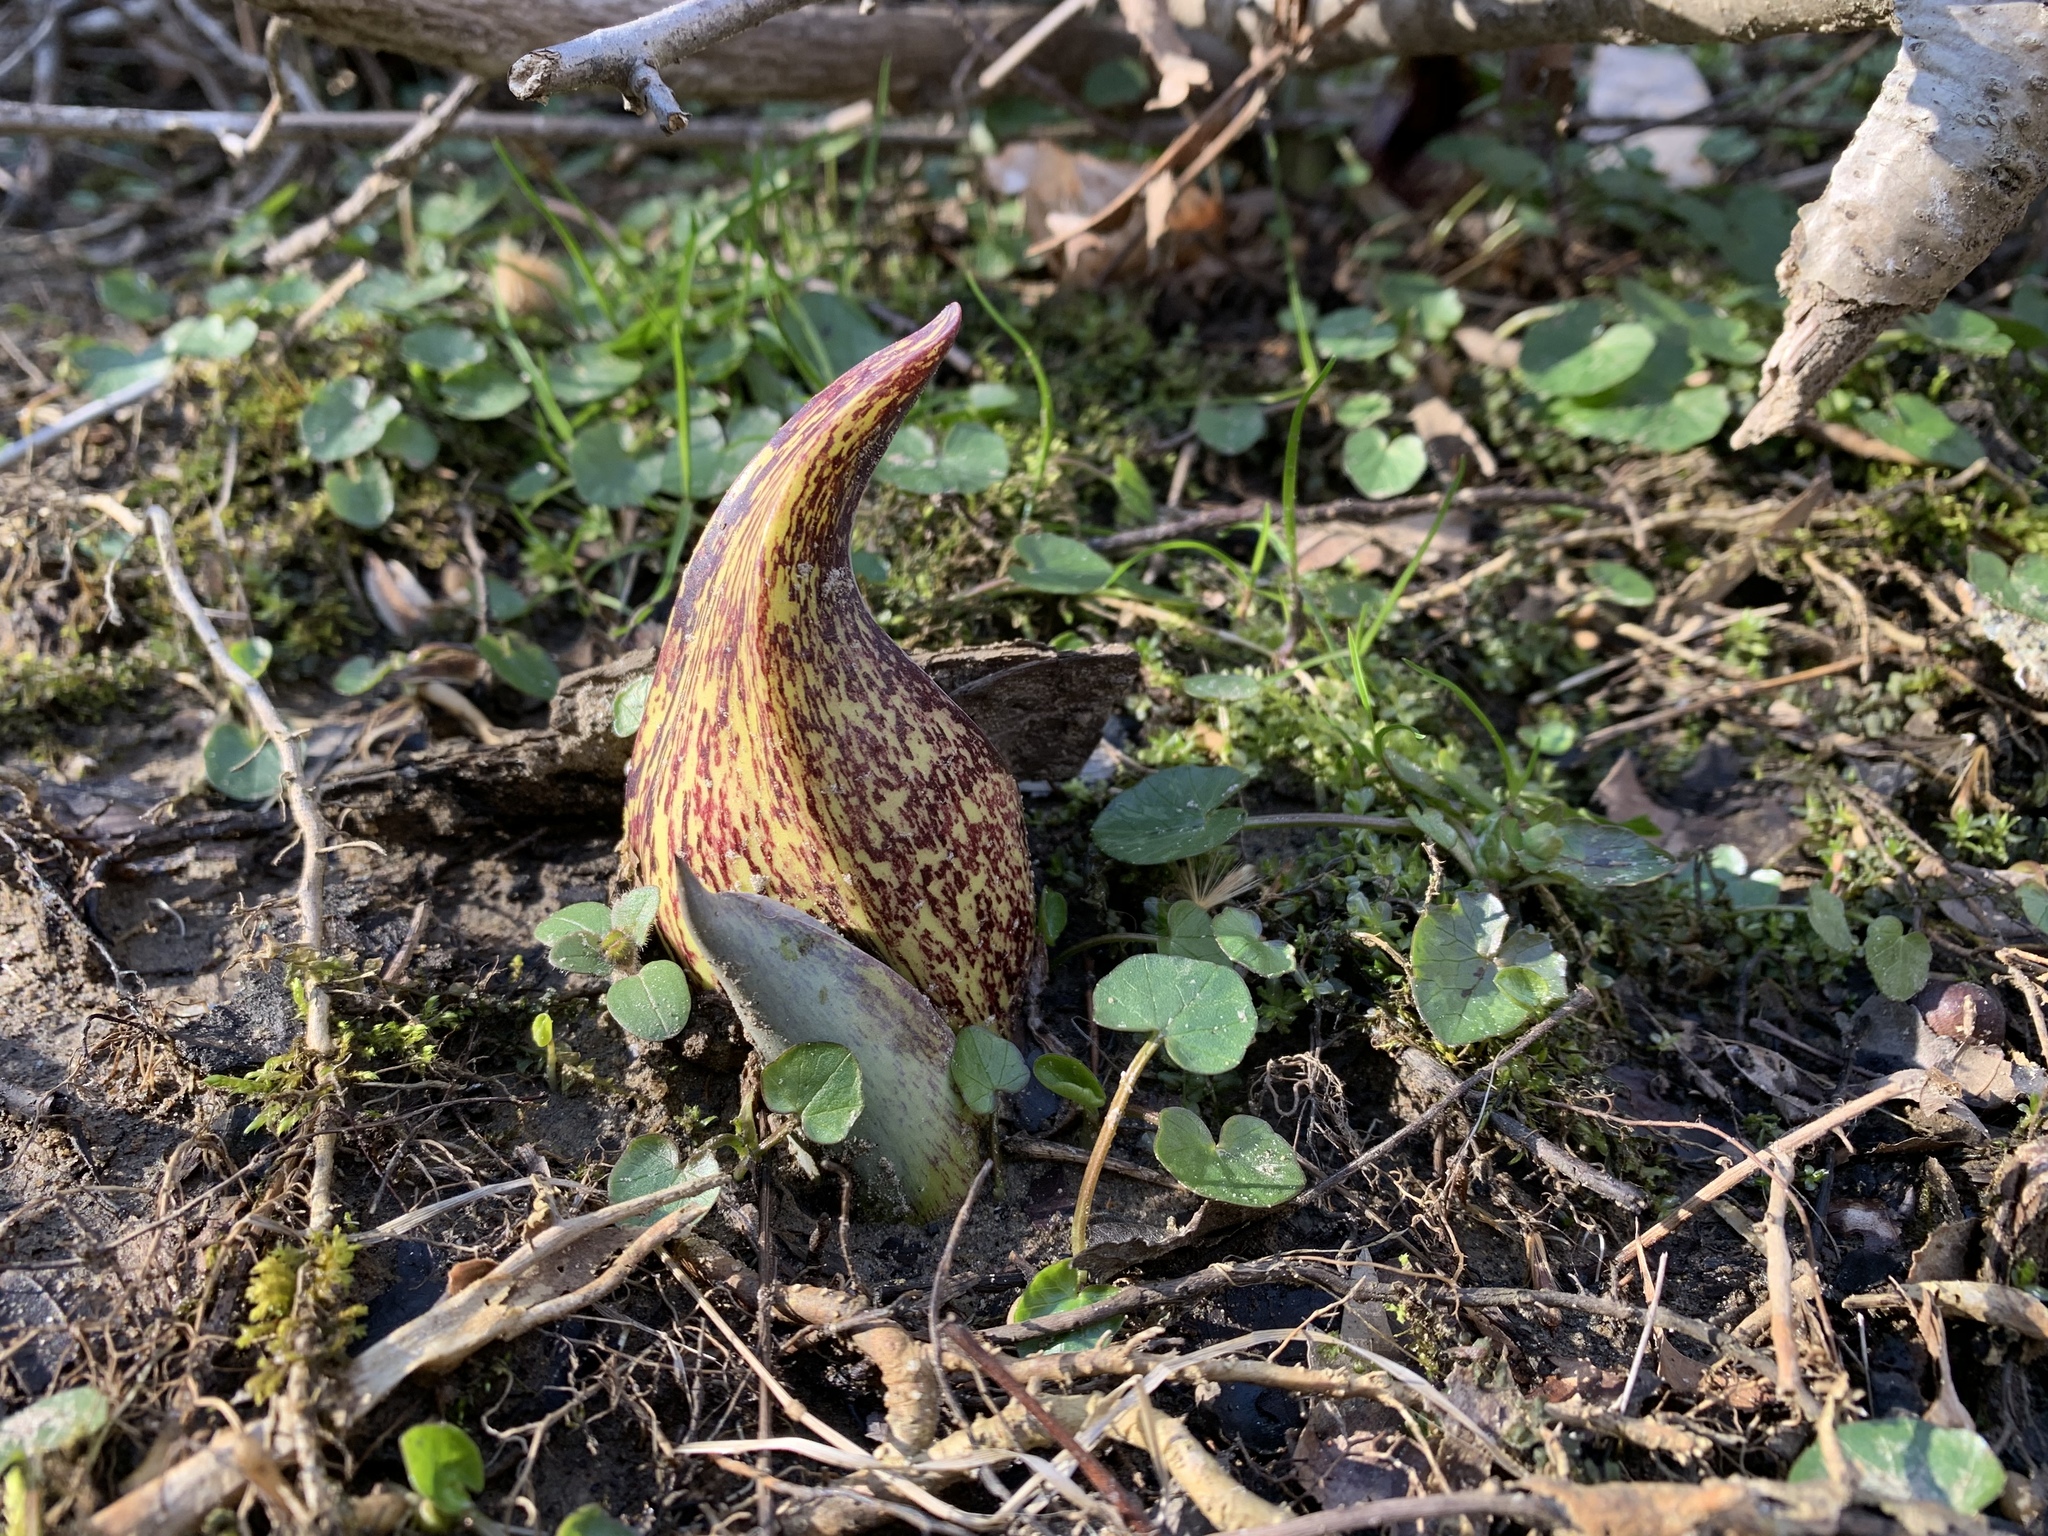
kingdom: Plantae
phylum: Tracheophyta
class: Liliopsida
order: Alismatales
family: Araceae
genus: Symplocarpus
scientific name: Symplocarpus foetidus
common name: Eastern skunk cabbage
